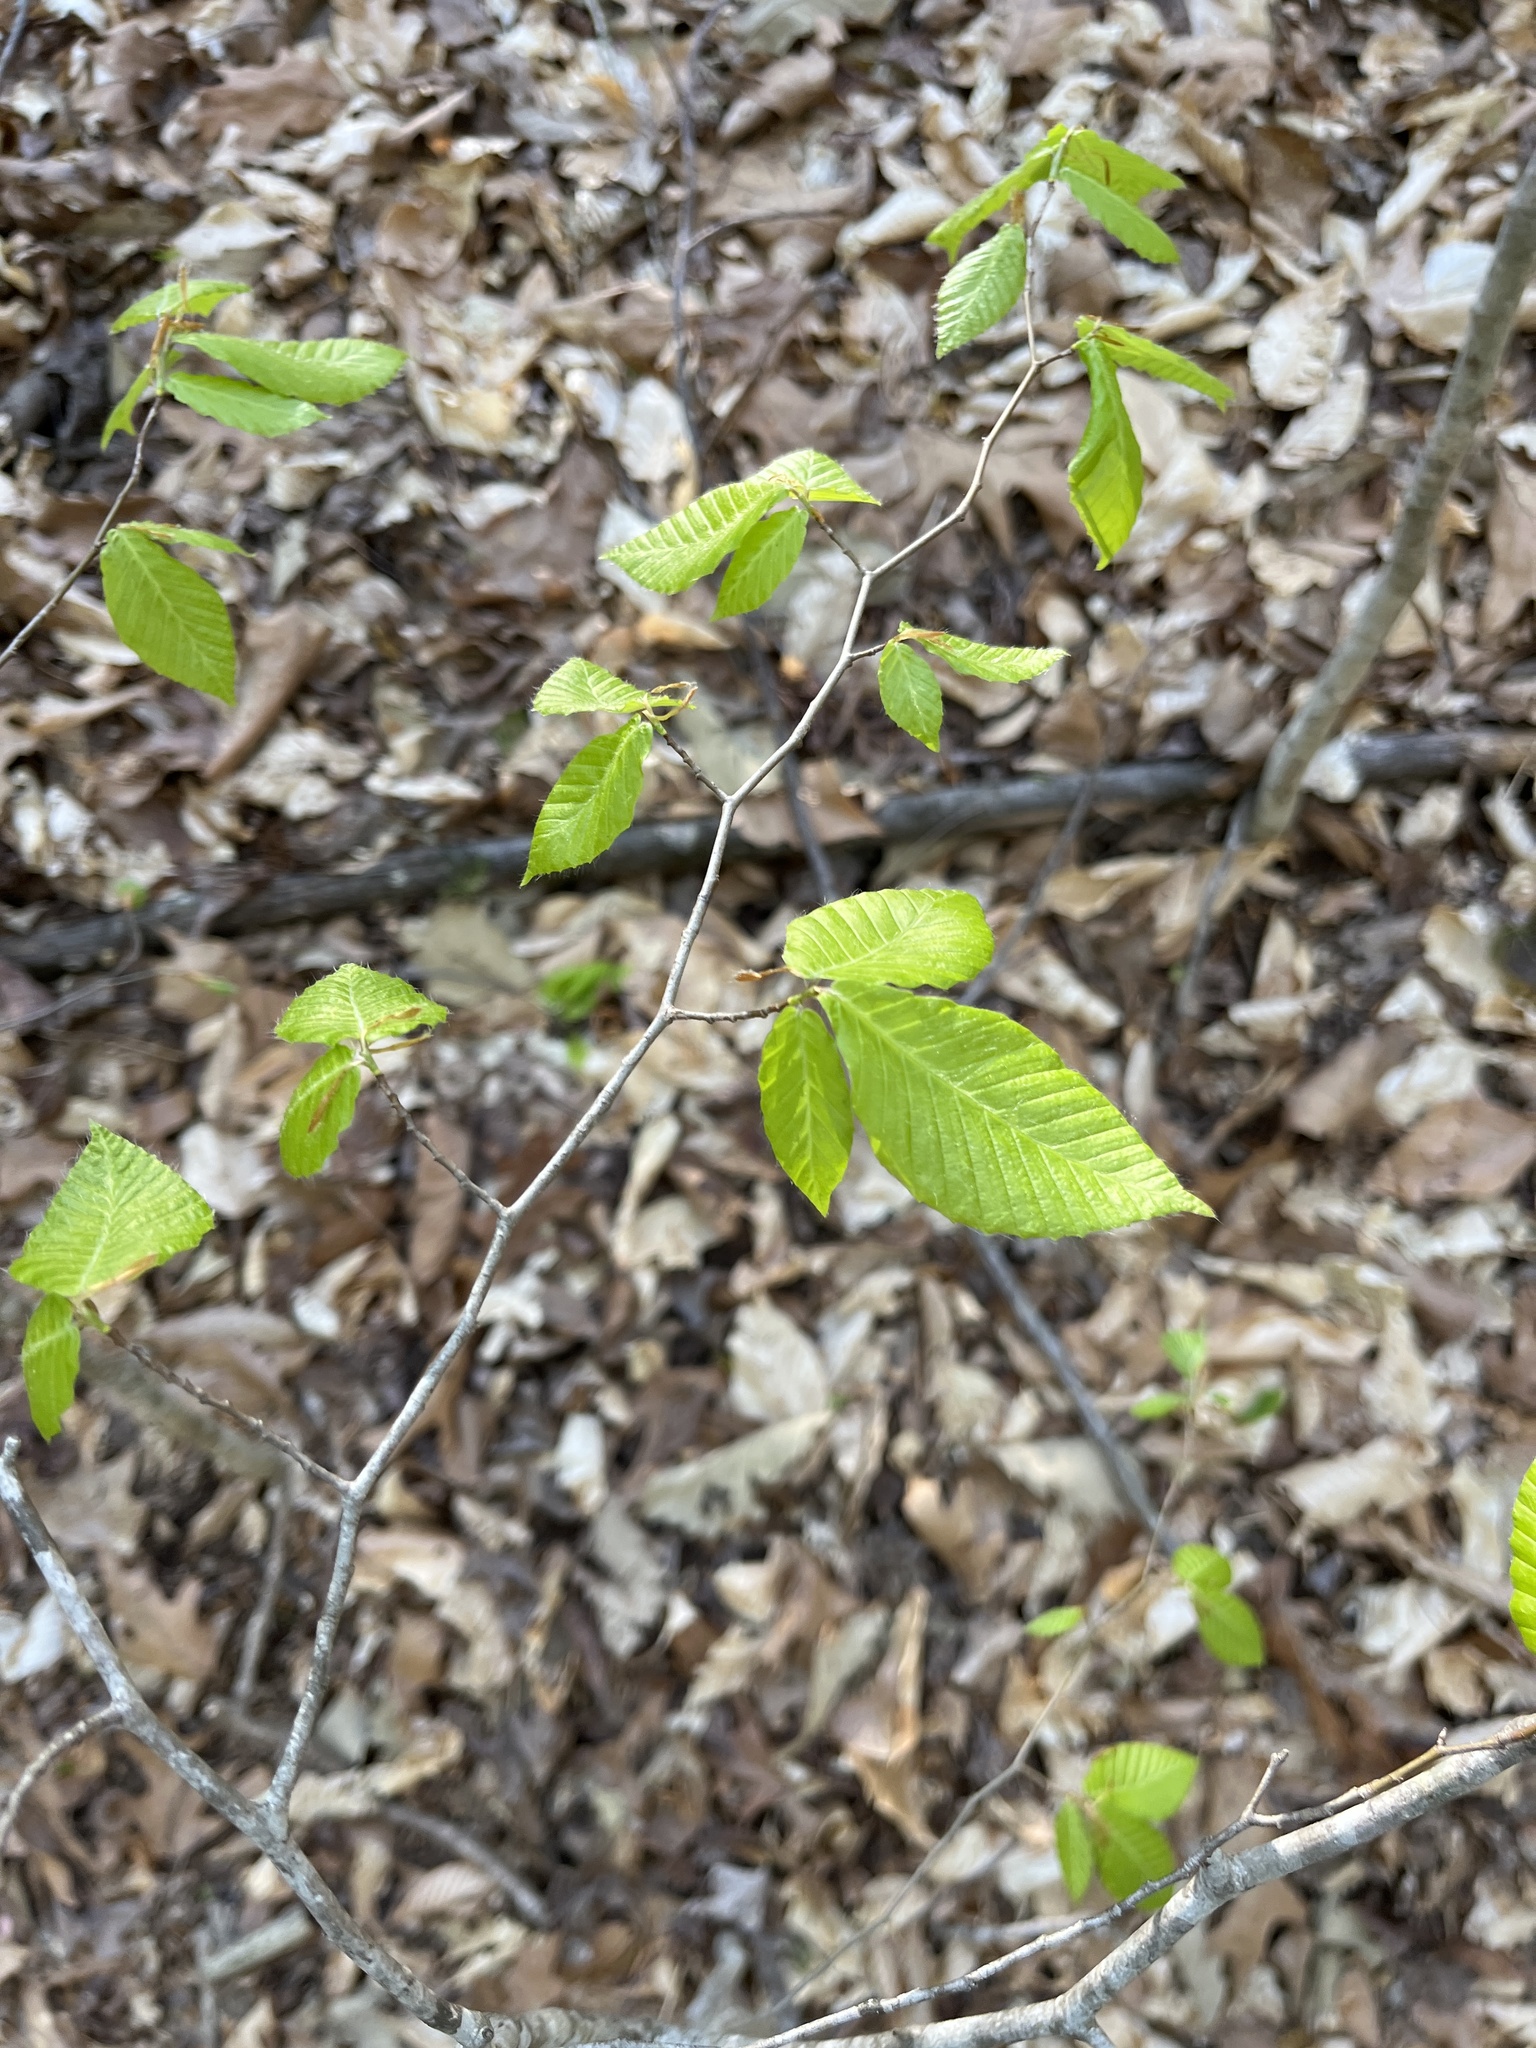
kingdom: Plantae
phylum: Tracheophyta
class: Magnoliopsida
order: Fagales
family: Fagaceae
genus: Fagus
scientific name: Fagus grandifolia
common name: American beech
